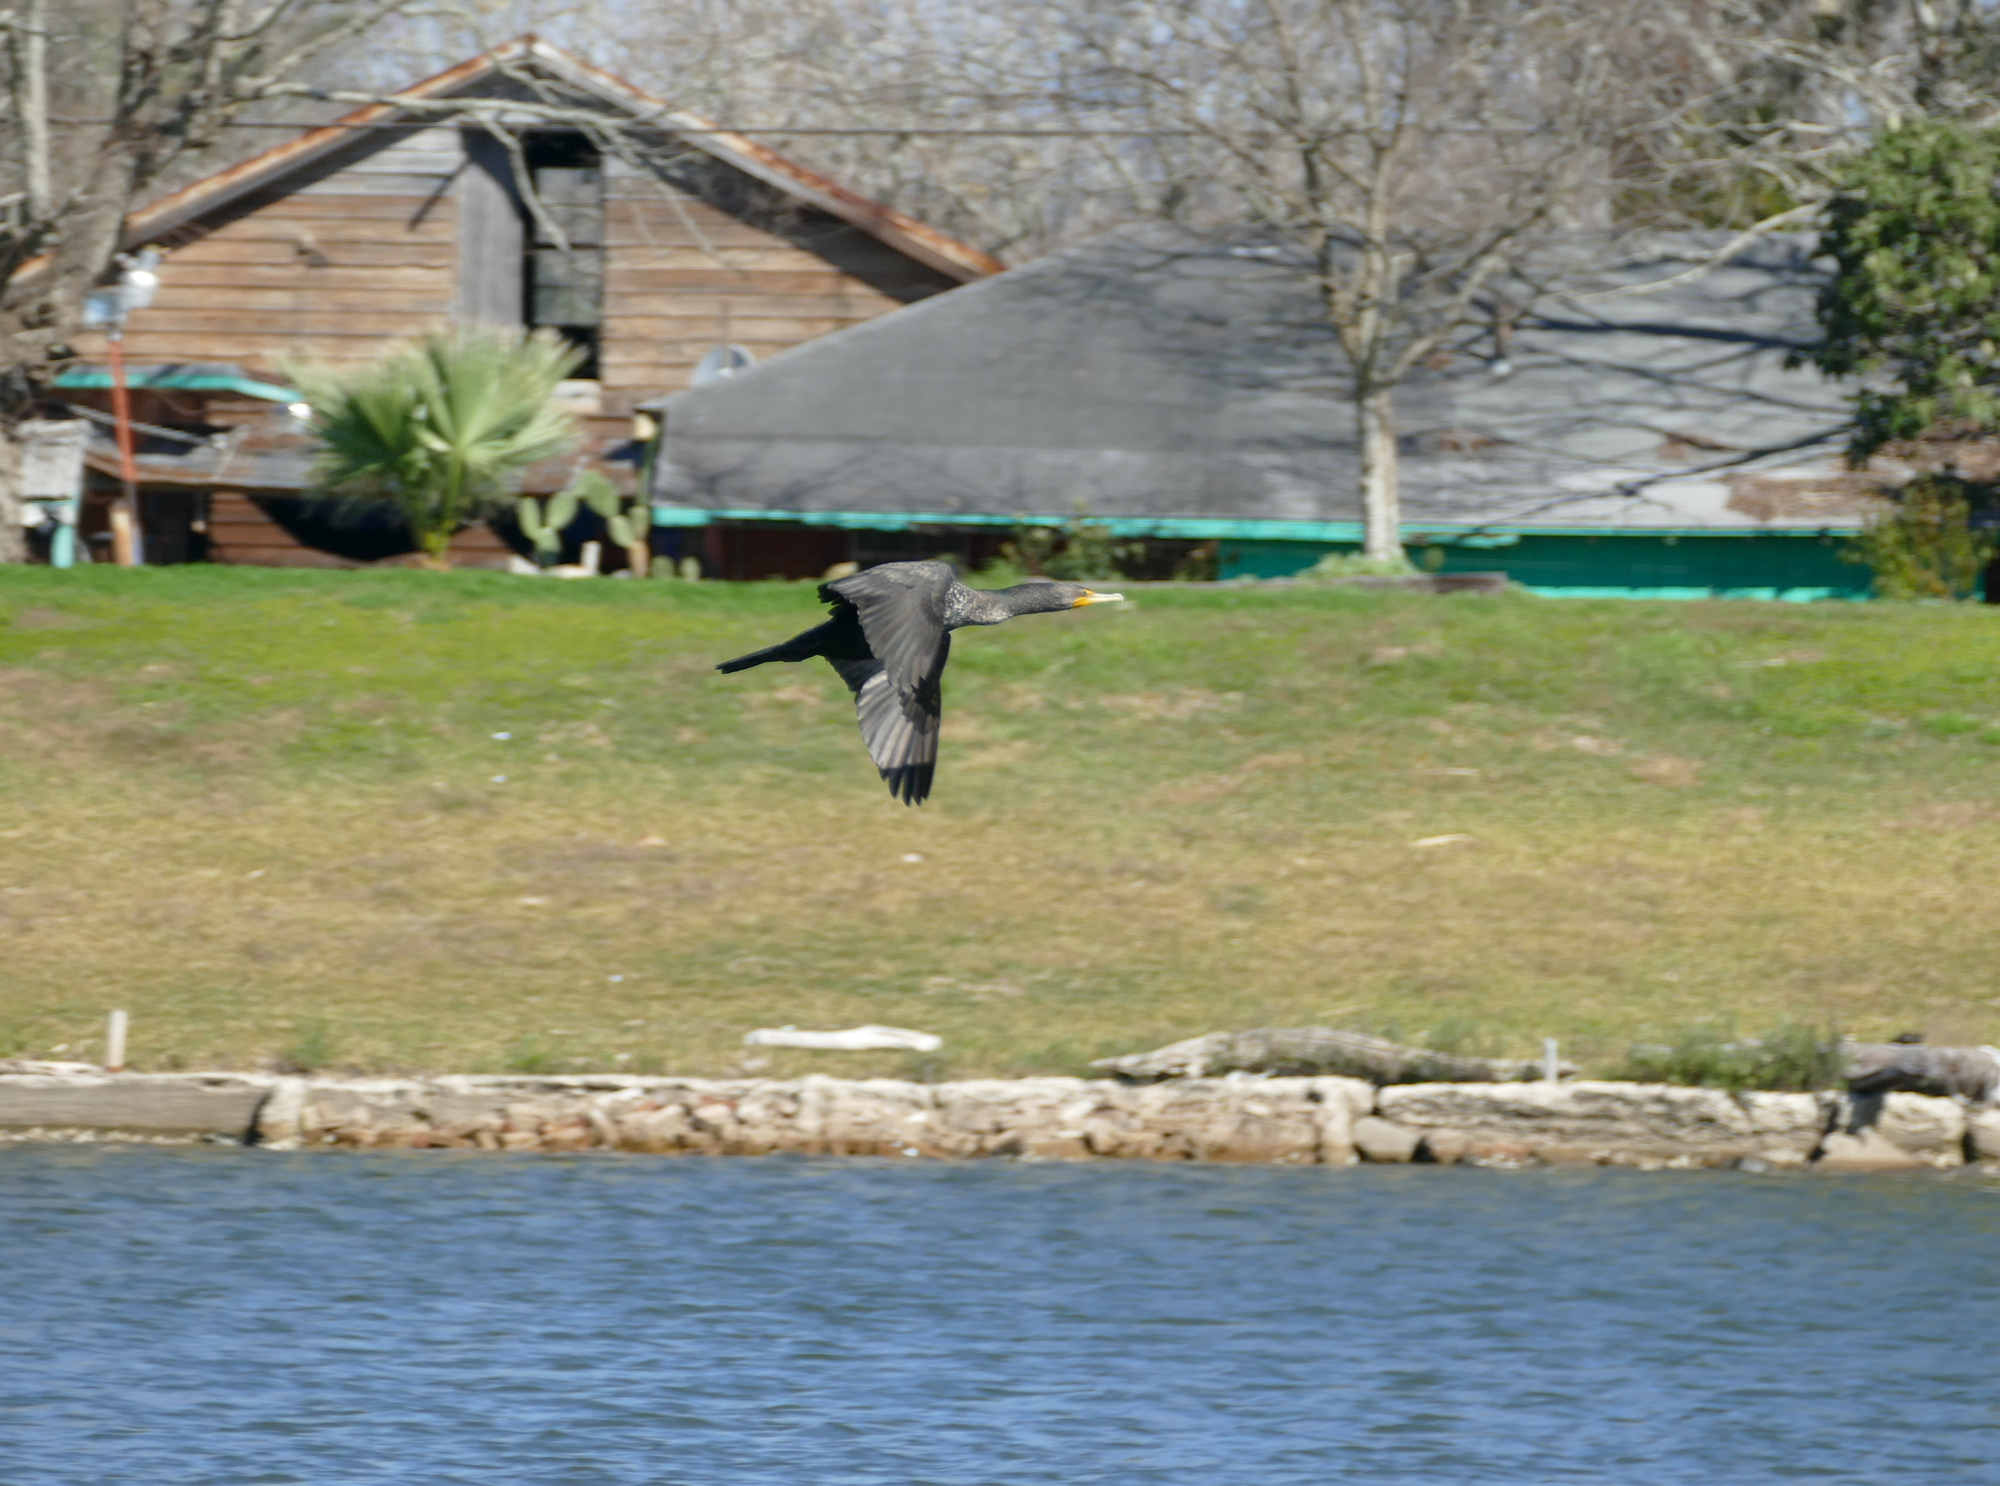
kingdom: Animalia
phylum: Chordata
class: Aves
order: Suliformes
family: Phalacrocoracidae
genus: Phalacrocorax
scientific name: Phalacrocorax auritus
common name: Double-crested cormorant
